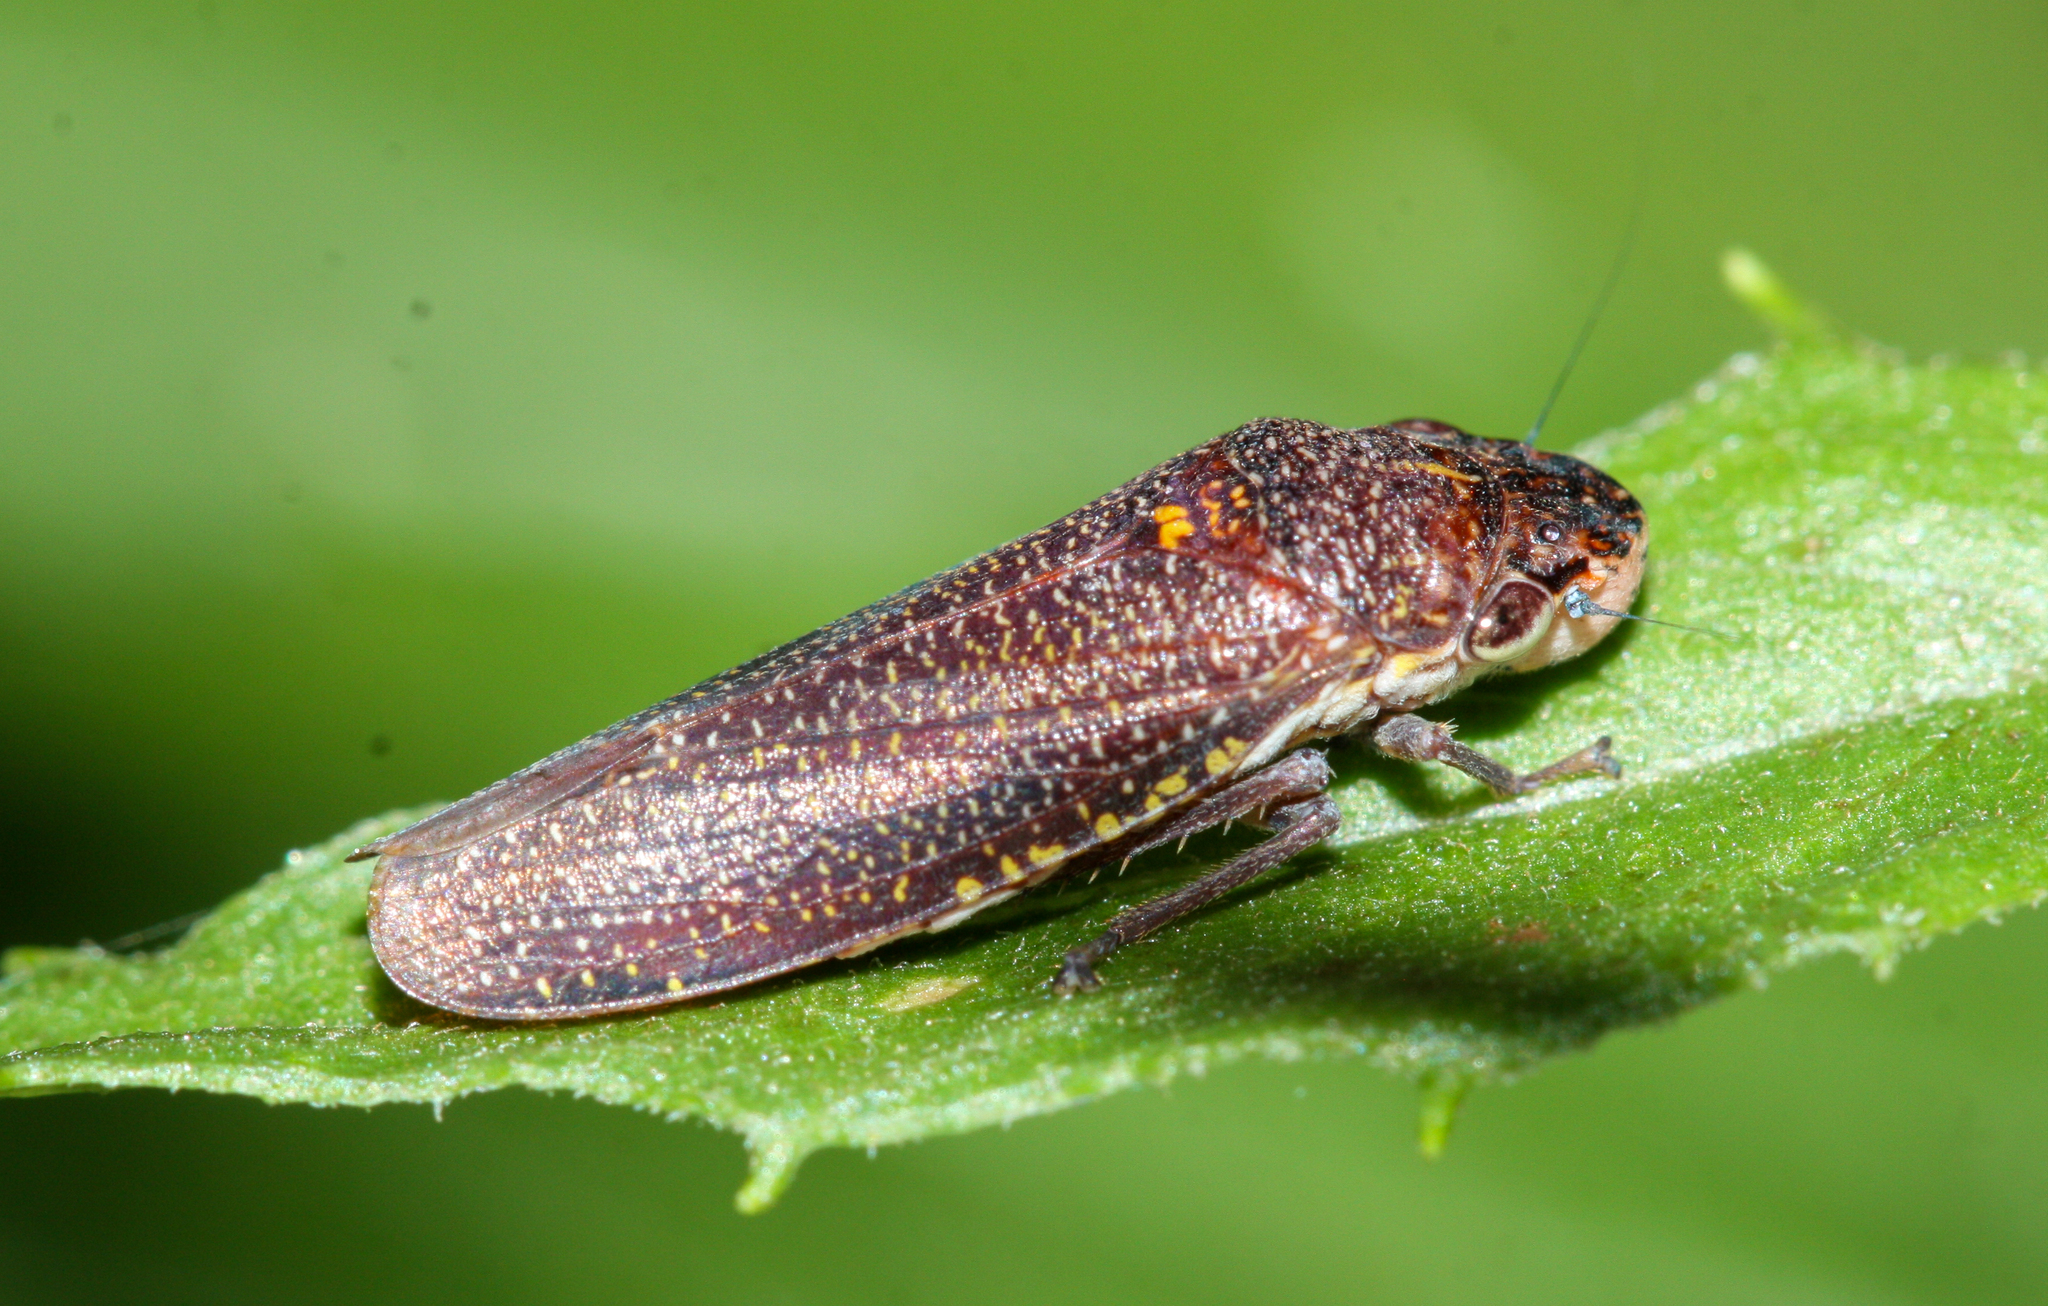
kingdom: Animalia
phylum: Arthropoda
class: Insecta
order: Hemiptera
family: Cicadellidae
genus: Paraulacizes
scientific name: Paraulacizes irrorata
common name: Speckled sharpshooter
